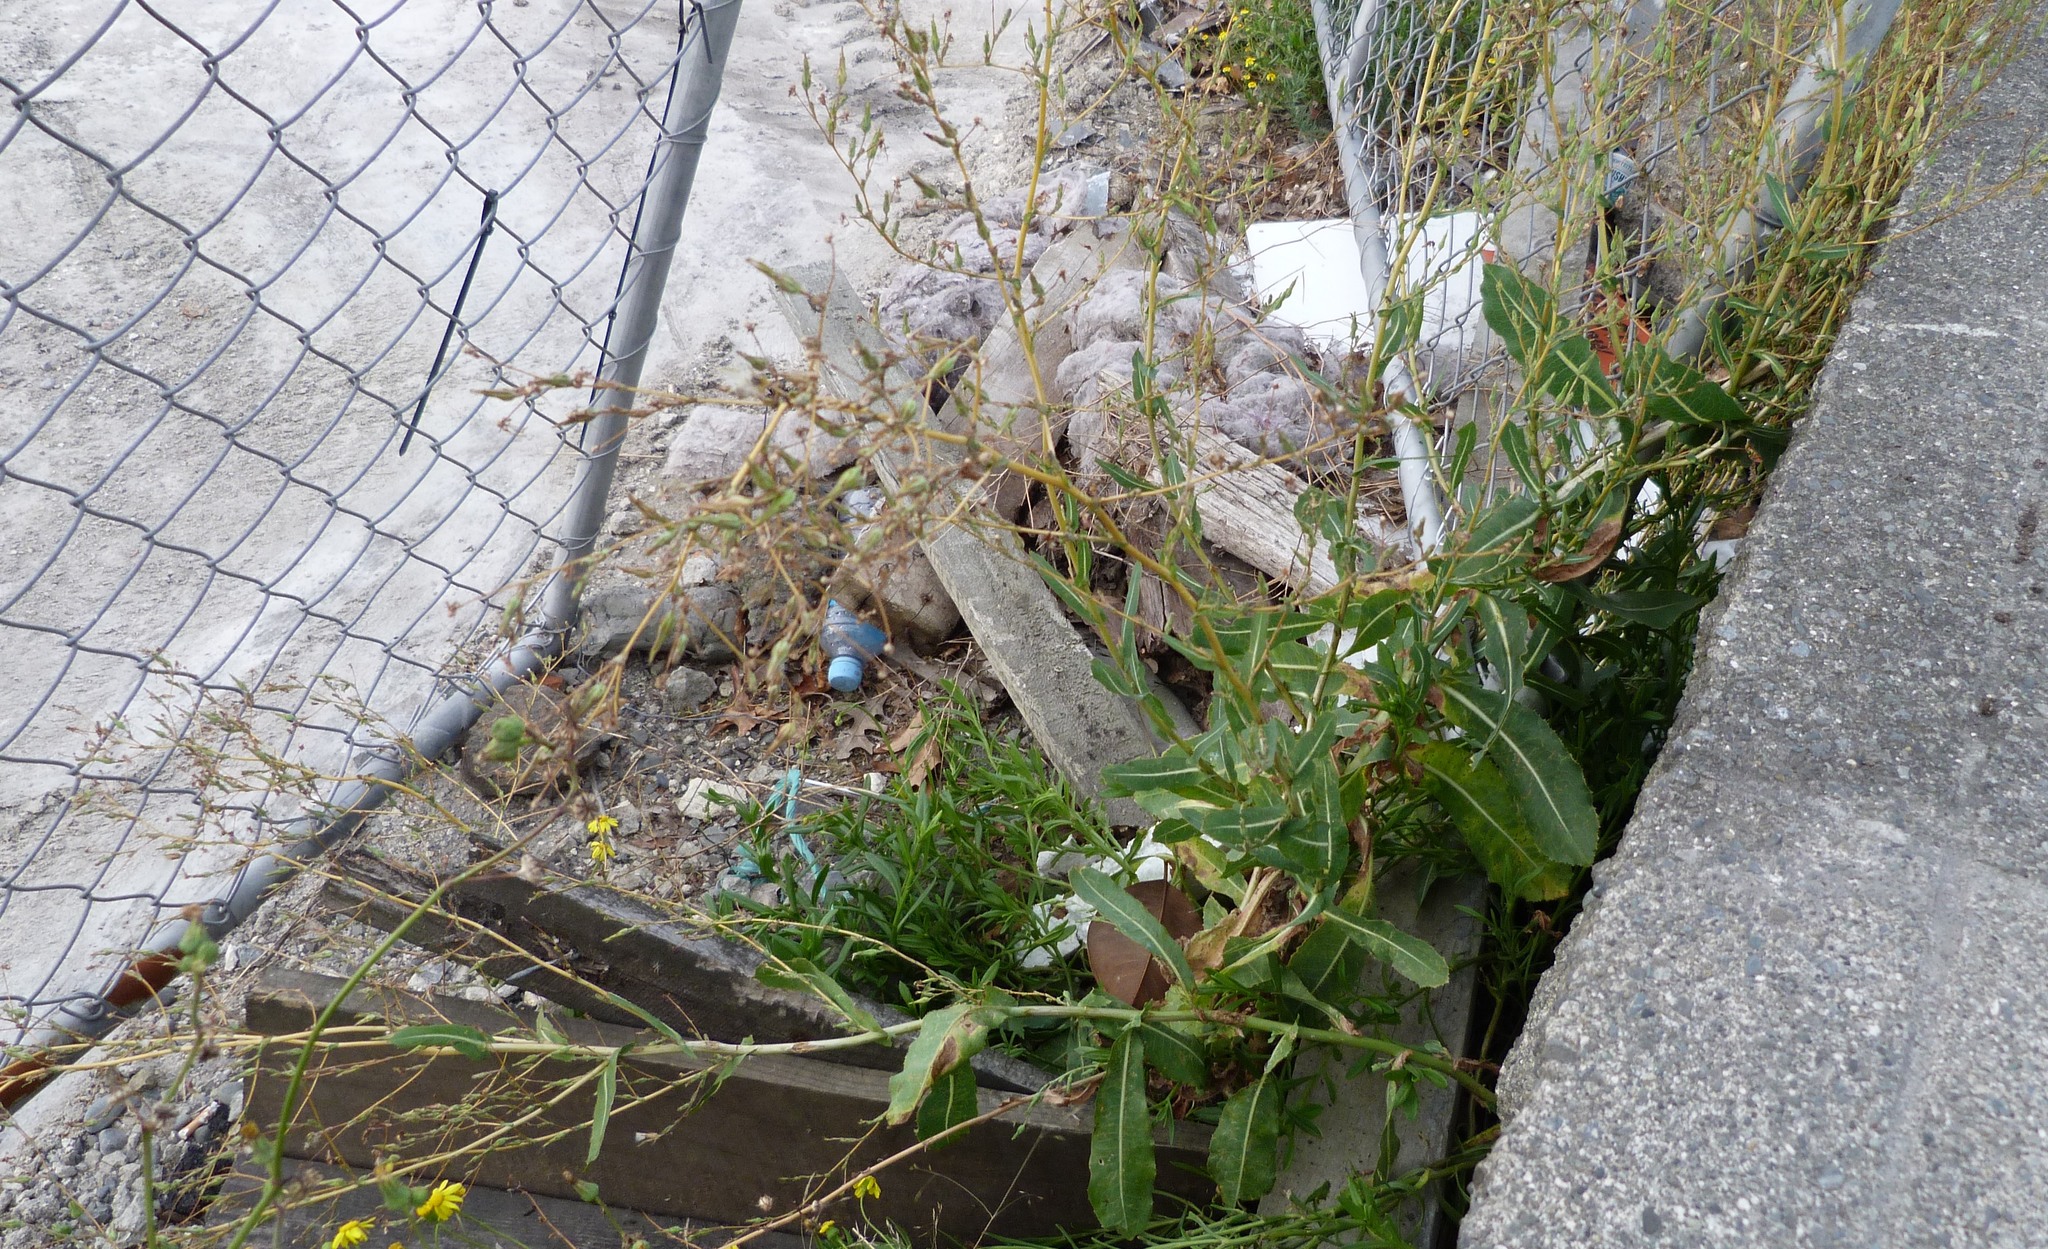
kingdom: Plantae
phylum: Tracheophyta
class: Magnoliopsida
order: Asterales
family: Asteraceae
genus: Lactuca
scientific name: Lactuca serriola
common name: Prickly lettuce
